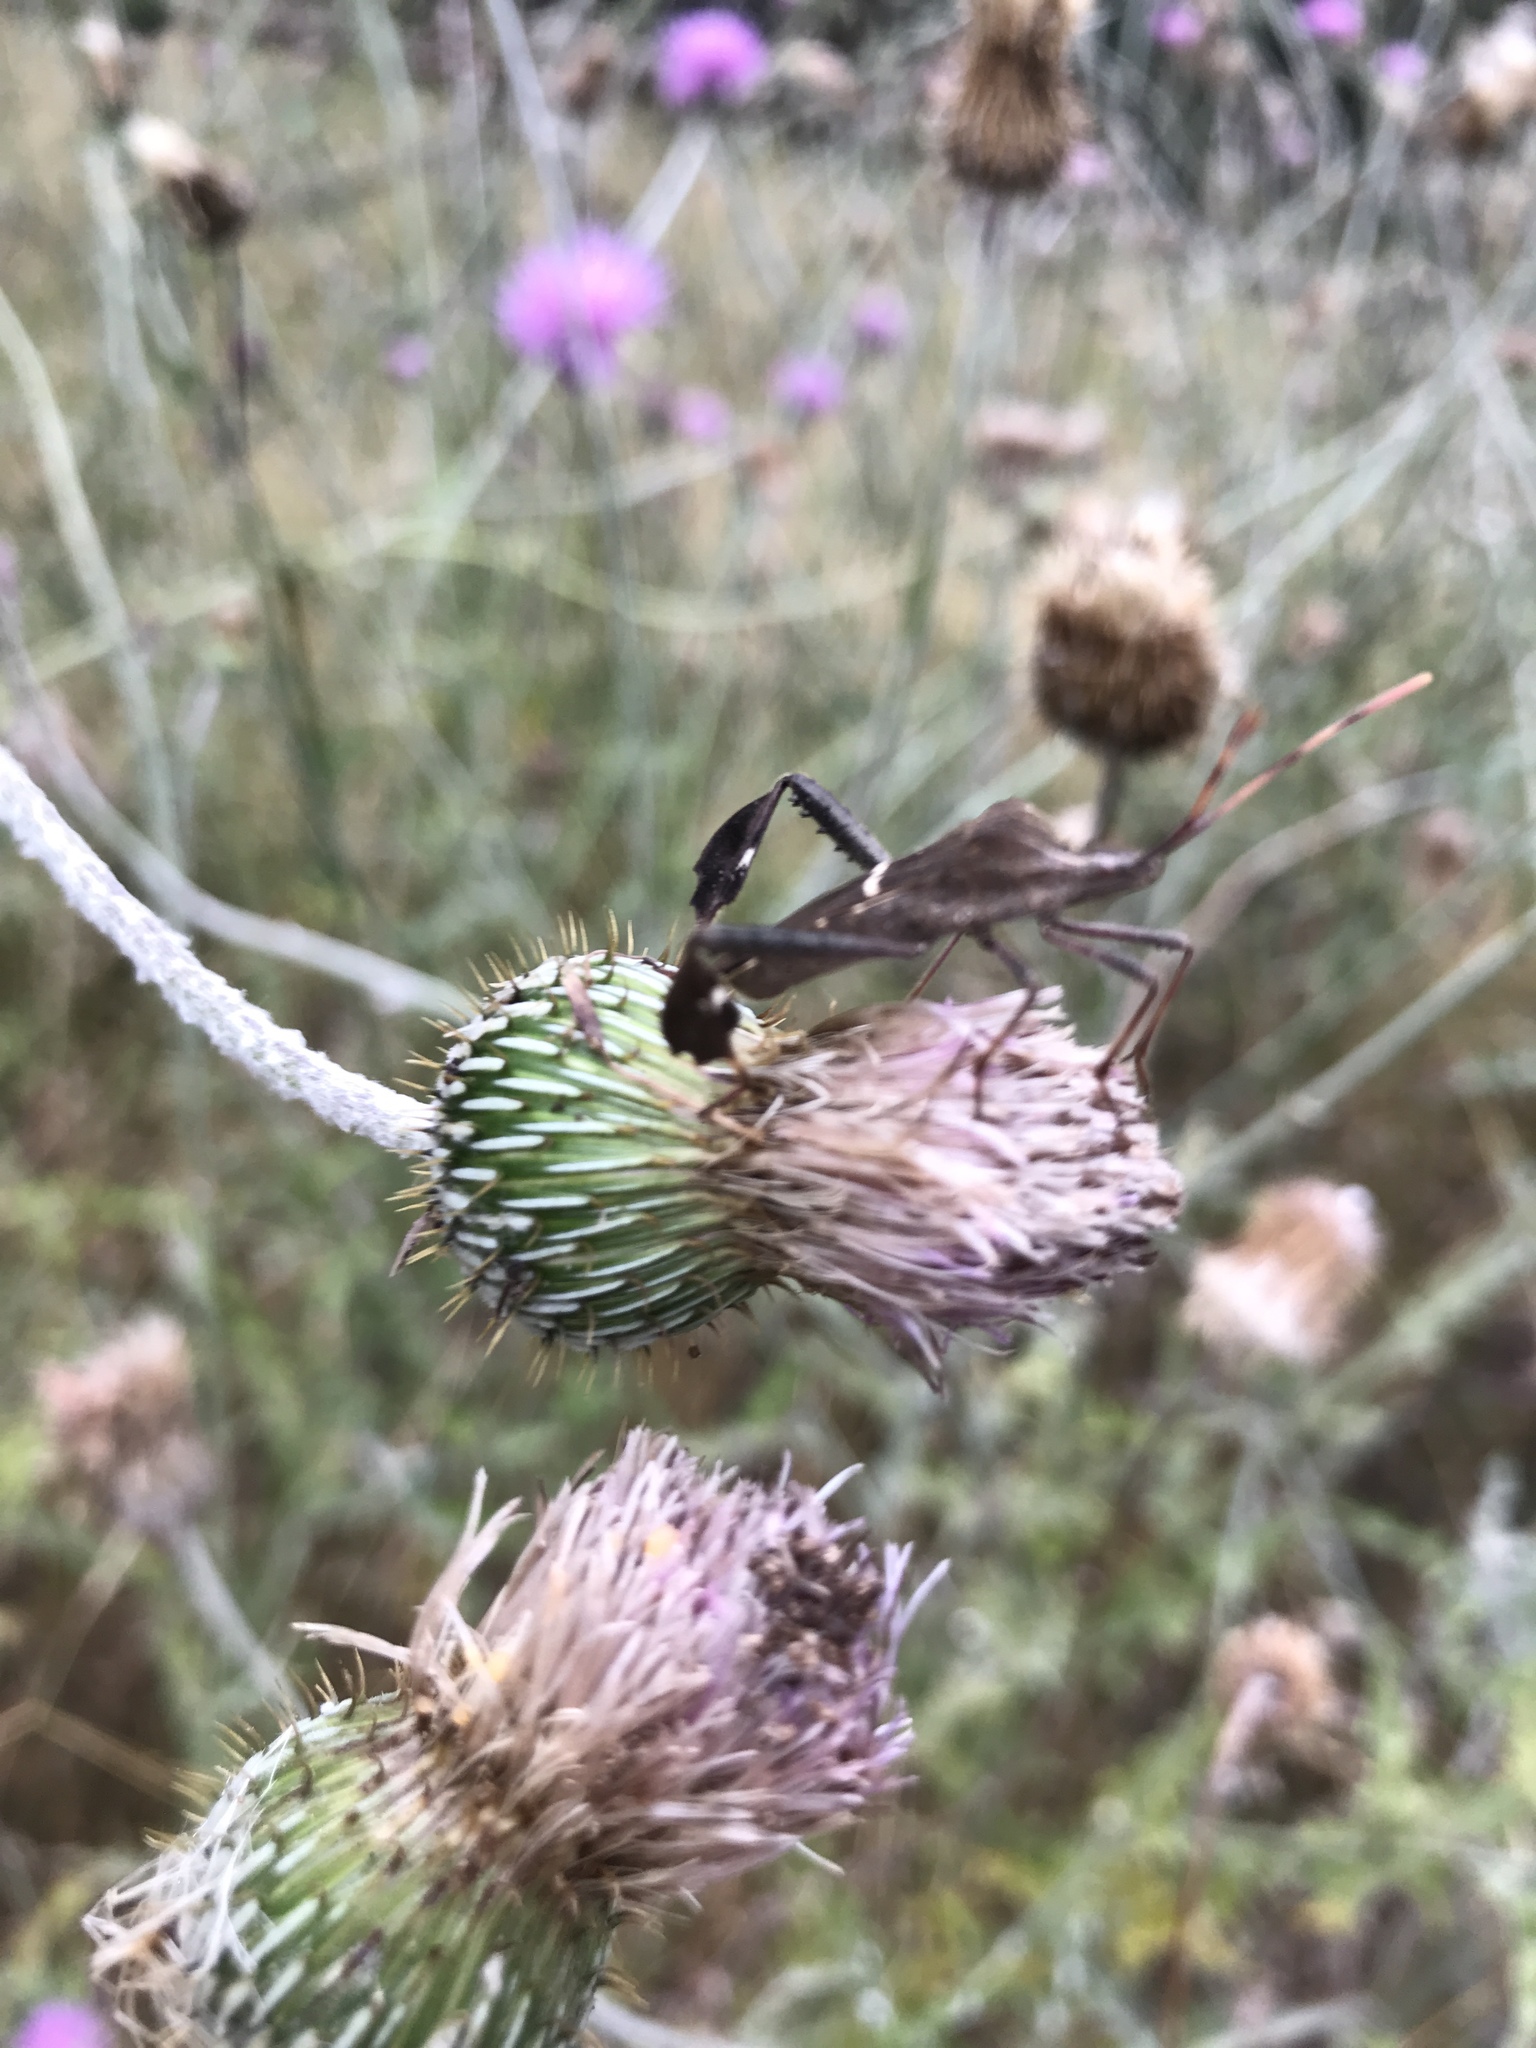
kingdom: Animalia
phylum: Arthropoda
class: Insecta
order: Hemiptera
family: Coreidae
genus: Leptoglossus
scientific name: Leptoglossus phyllopus
